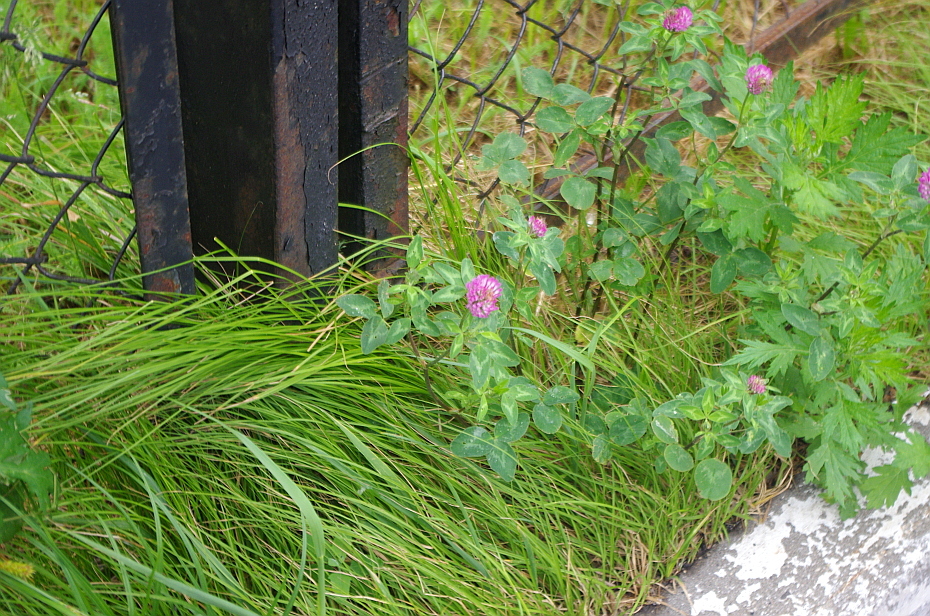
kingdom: Plantae
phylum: Tracheophyta
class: Magnoliopsida
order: Fabales
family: Fabaceae
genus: Trifolium
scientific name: Trifolium pratense
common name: Red clover
